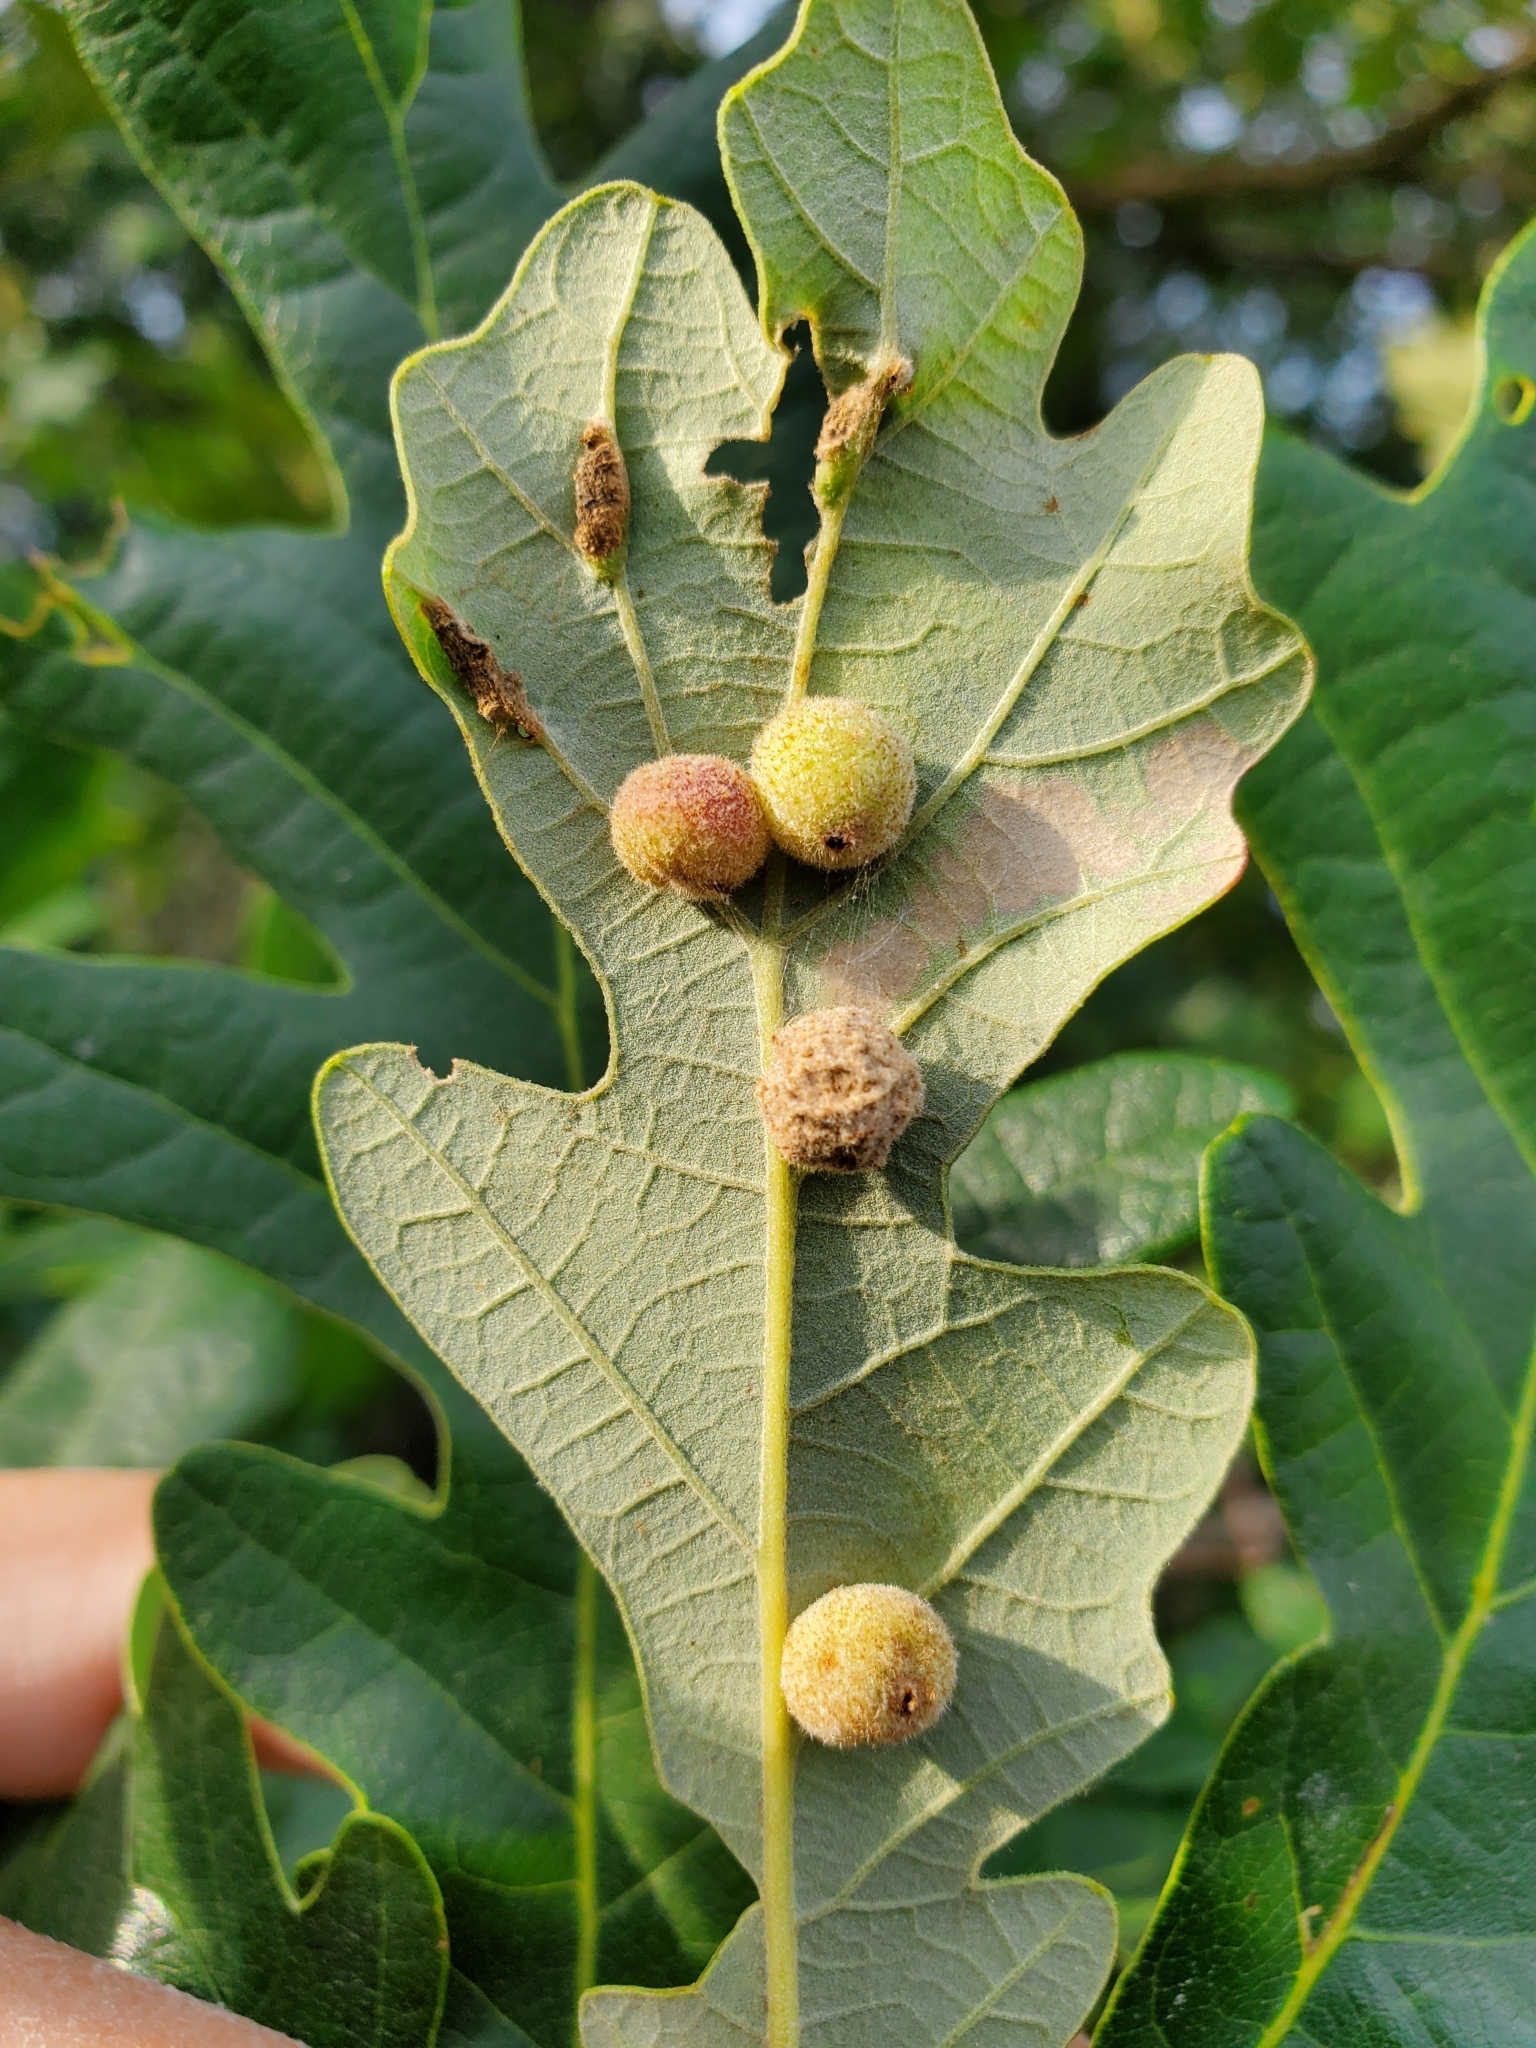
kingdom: Animalia
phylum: Arthropoda
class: Insecta
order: Hymenoptera
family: Cynipidae
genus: Philonix
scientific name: Philonix fulvicollis
